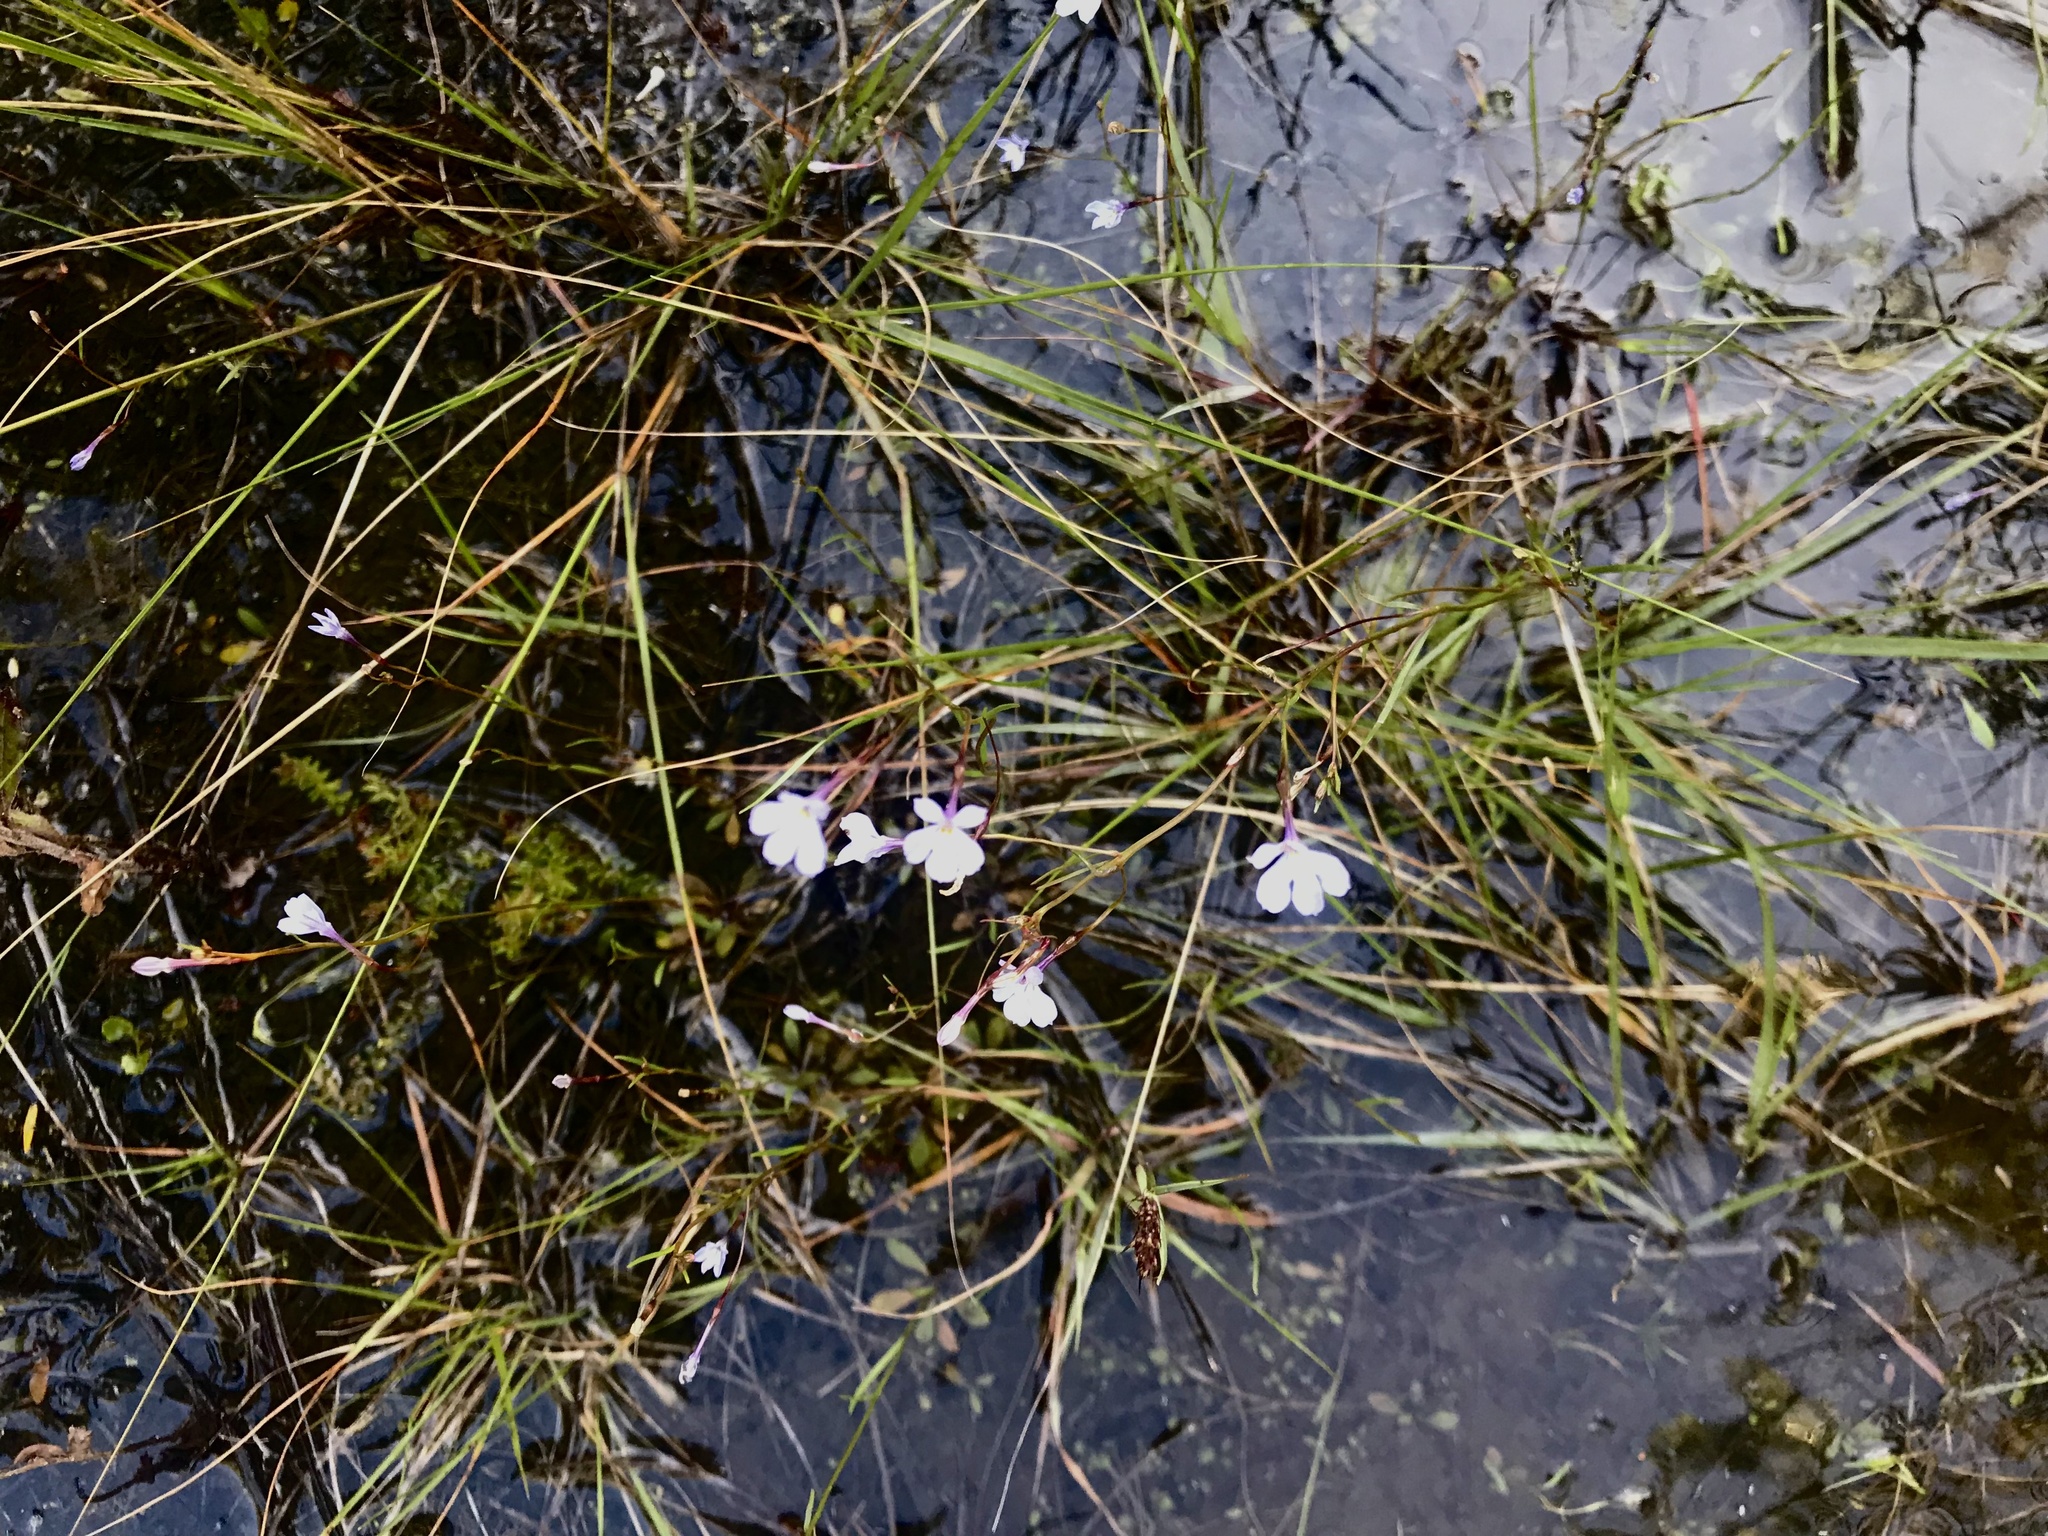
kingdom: Plantae
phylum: Tracheophyta
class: Magnoliopsida
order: Asterales
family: Campanulaceae
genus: Wimmerella
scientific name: Wimmerella arabidea
